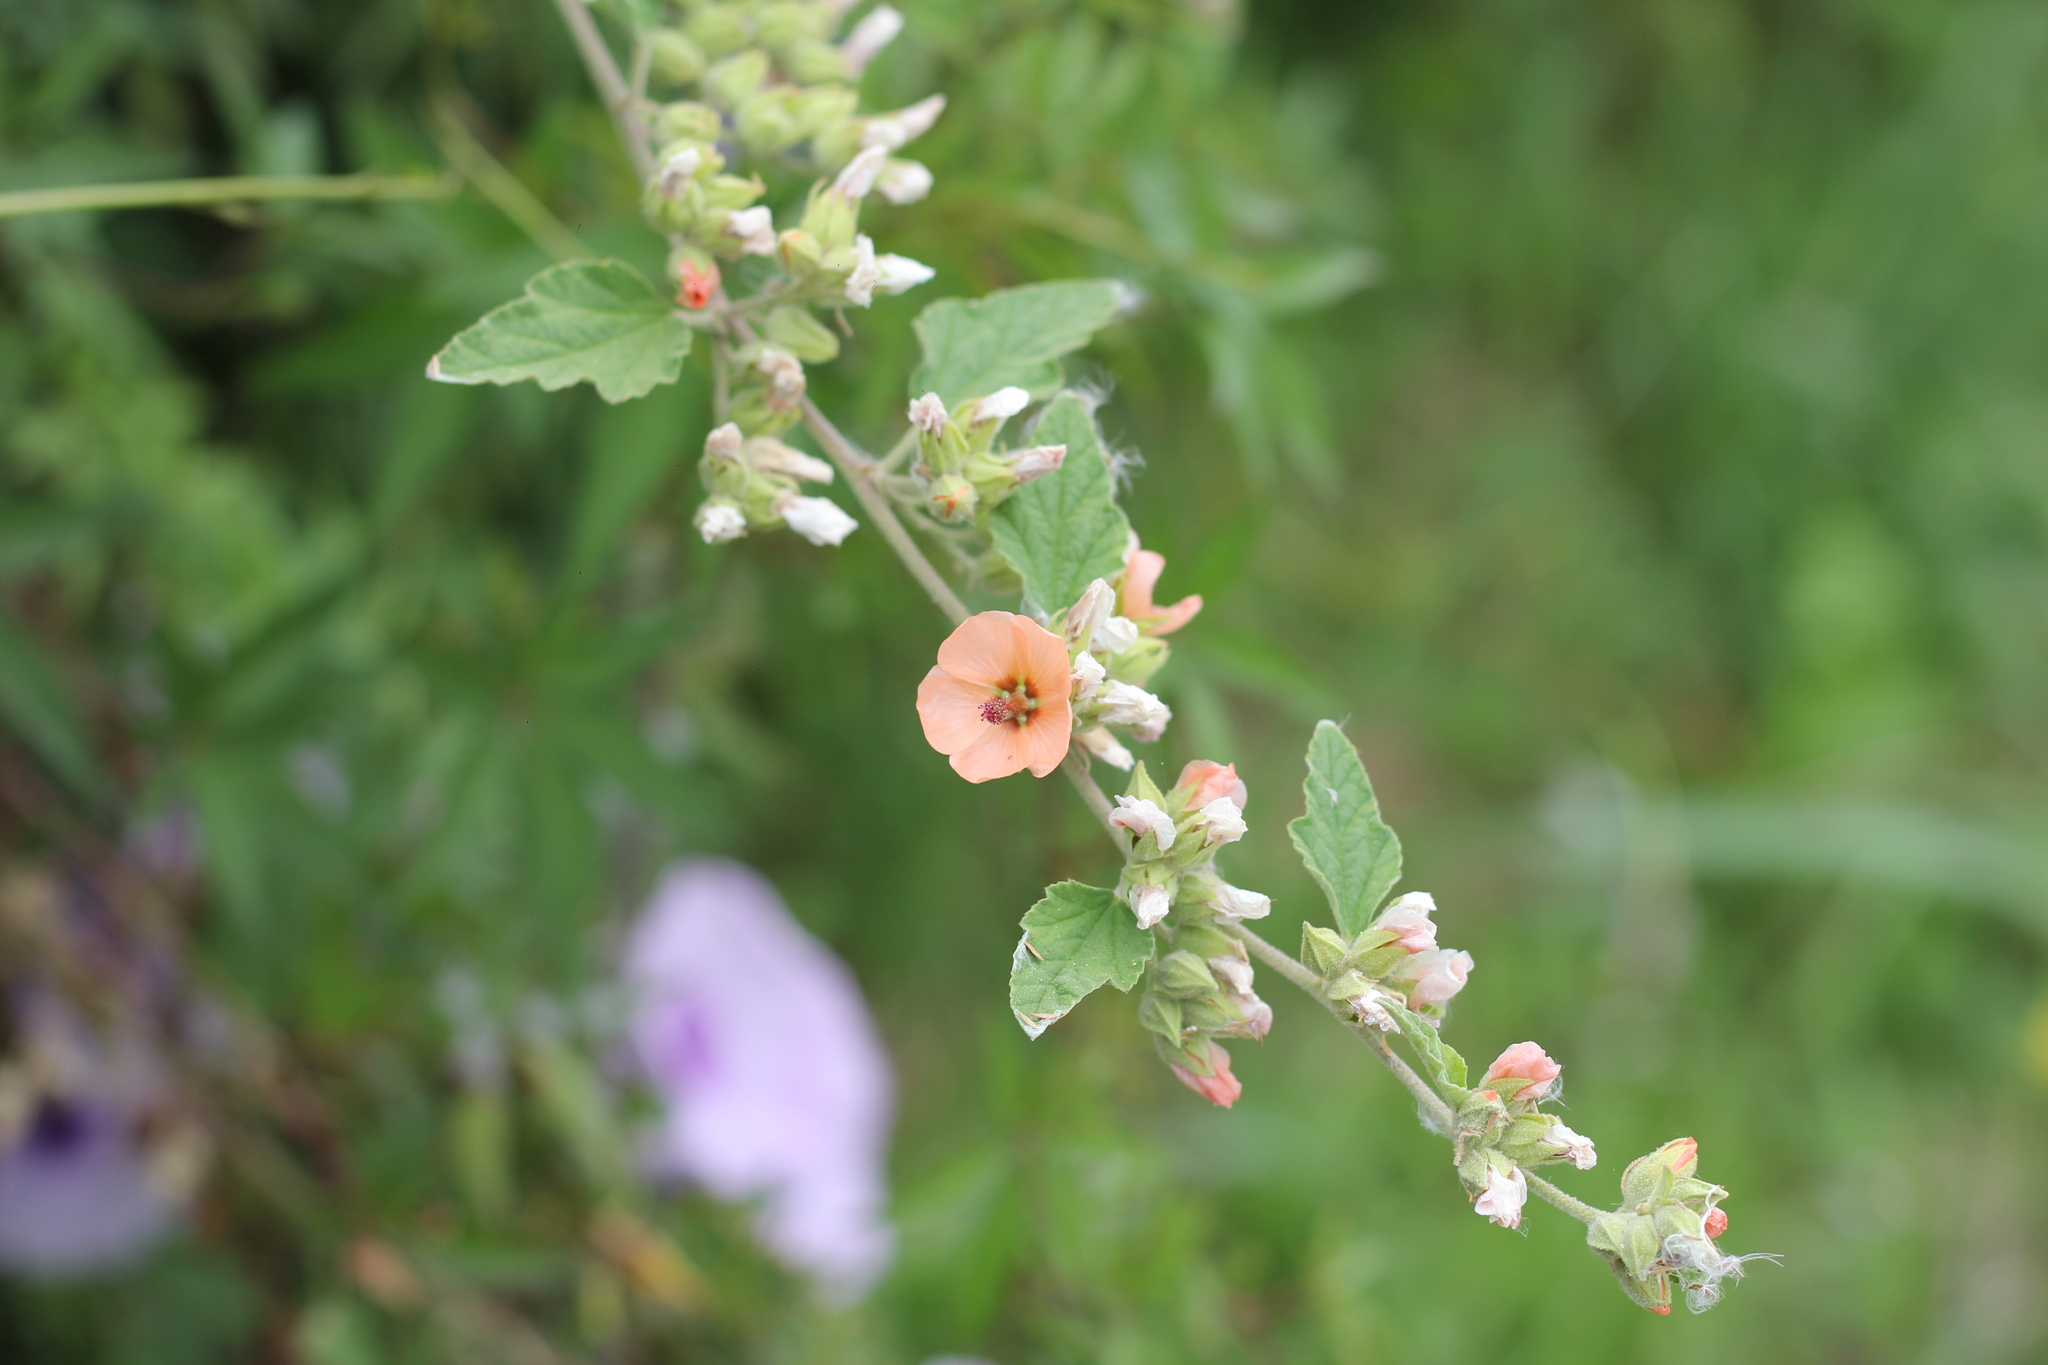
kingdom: Plantae
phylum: Tracheophyta
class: Magnoliopsida
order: Malvales
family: Malvaceae
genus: Sphaeralcea
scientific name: Sphaeralcea bonariensis
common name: Latin globemallow
